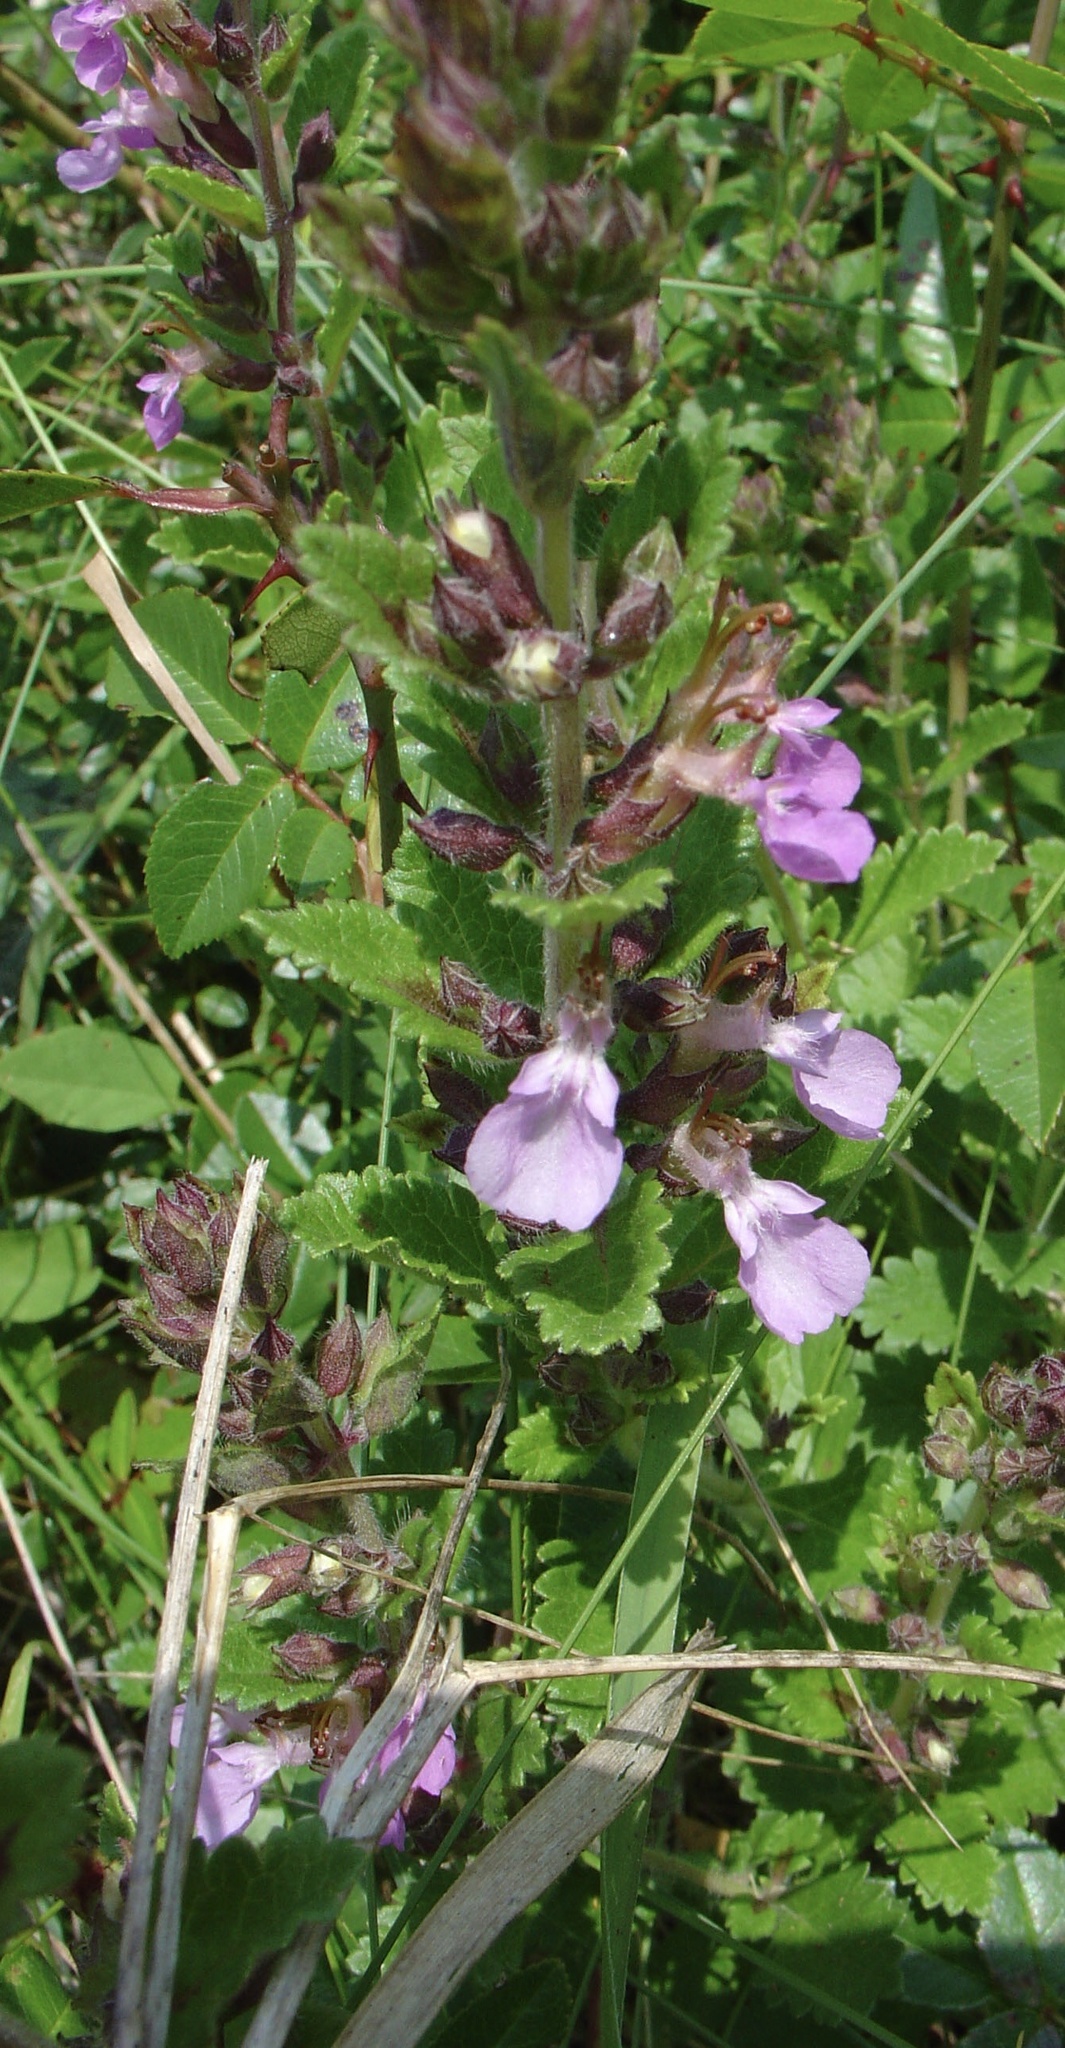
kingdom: Plantae
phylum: Tracheophyta
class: Magnoliopsida
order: Lamiales
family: Lamiaceae
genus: Teucrium
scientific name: Teucrium chamaedrys
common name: Wall germander
